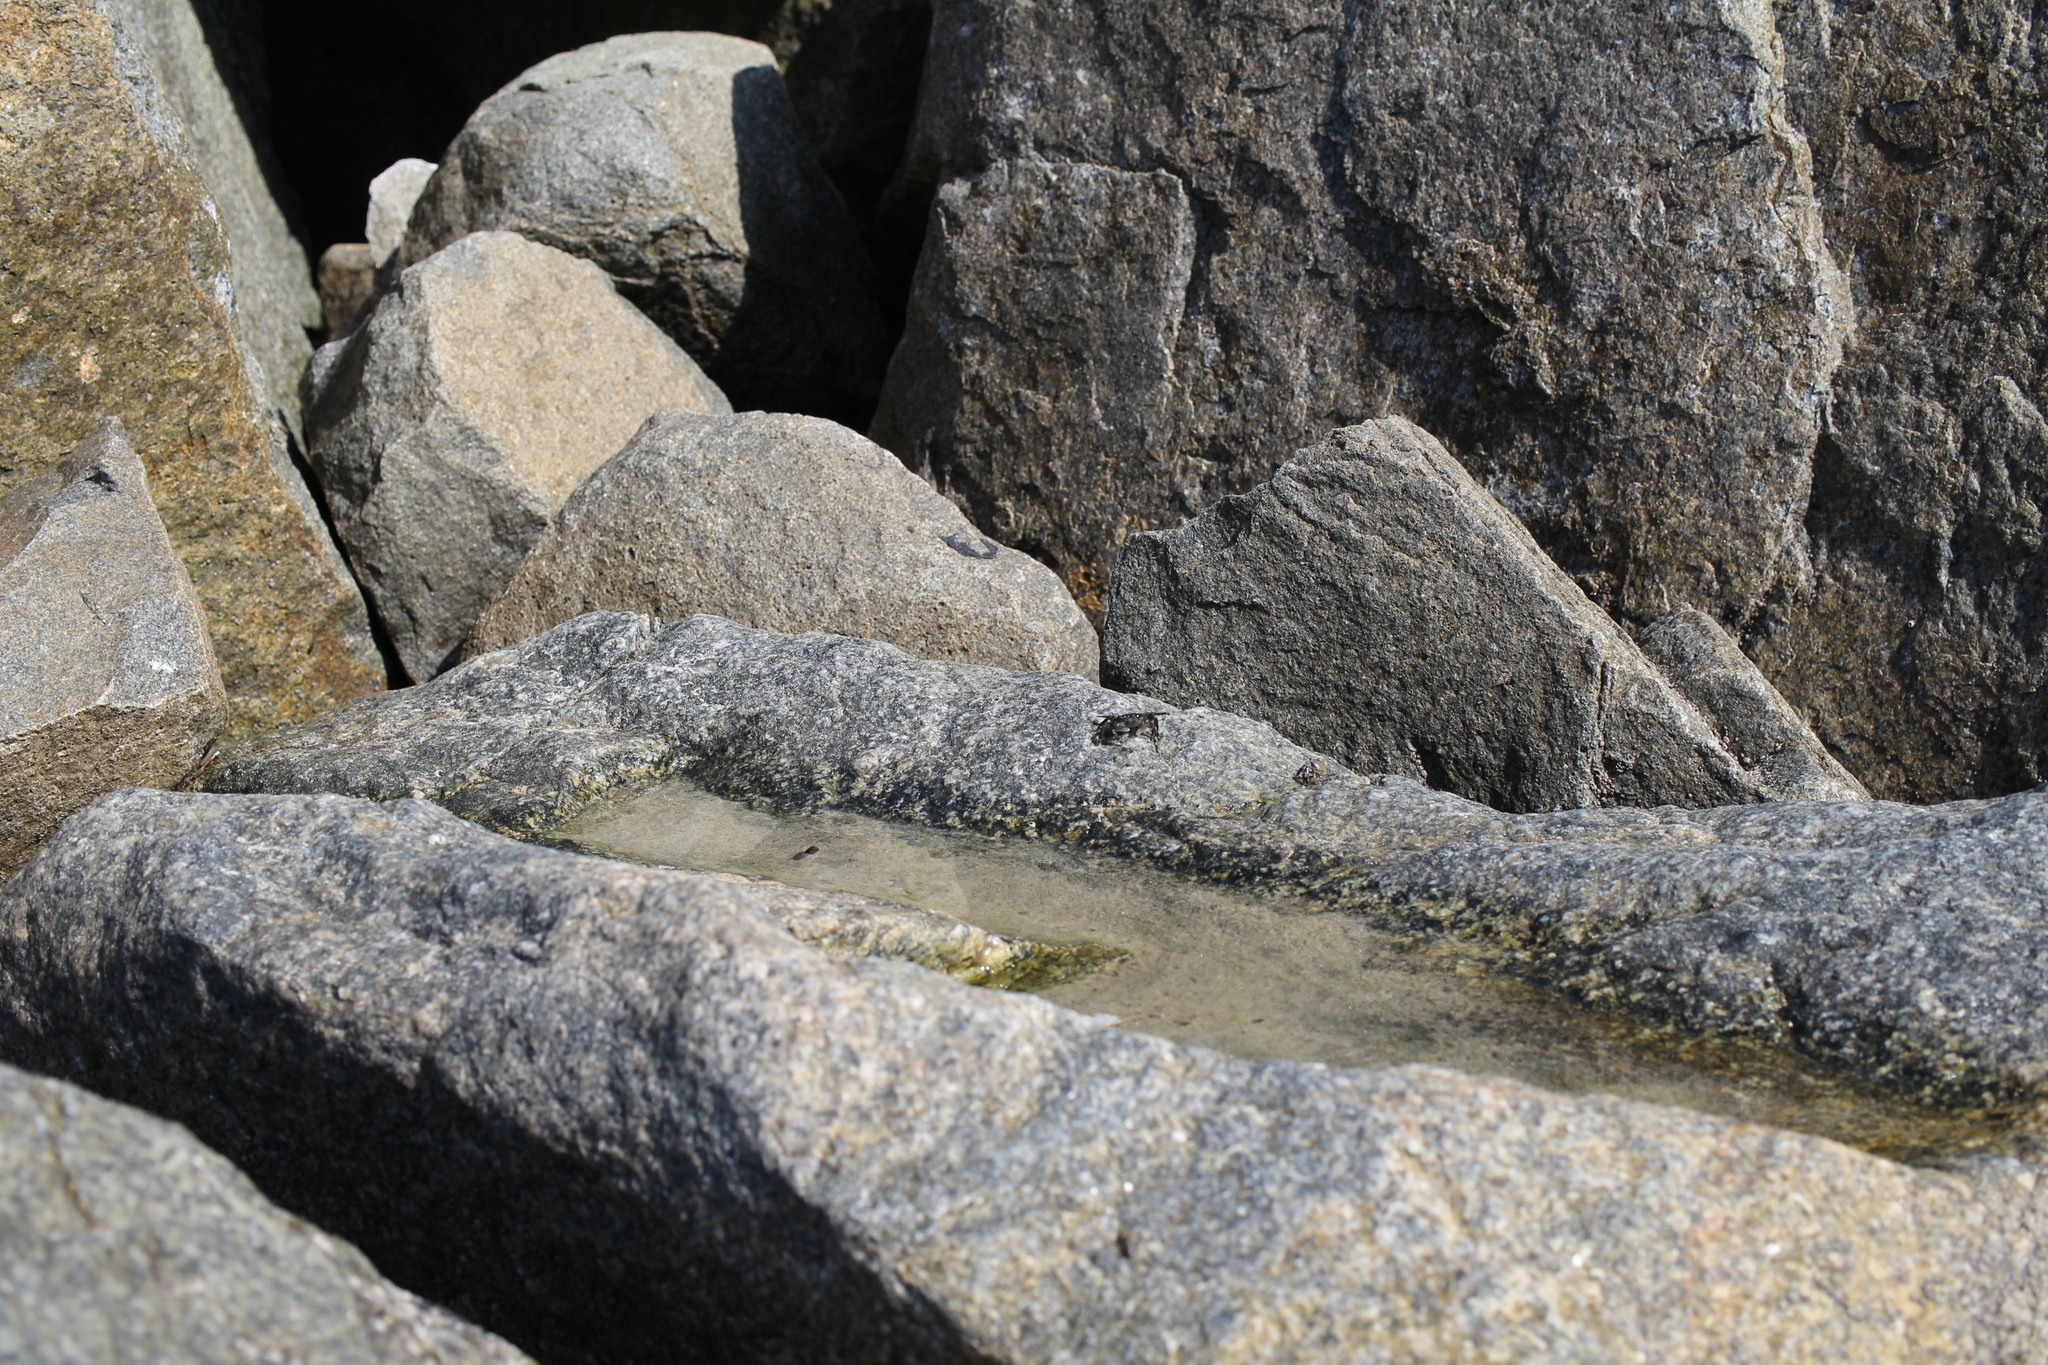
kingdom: Animalia
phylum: Arthropoda
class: Malacostraca
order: Decapoda
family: Grapsidae
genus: Pachygrapsus
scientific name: Pachygrapsus crassipes
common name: Striped shore crab
